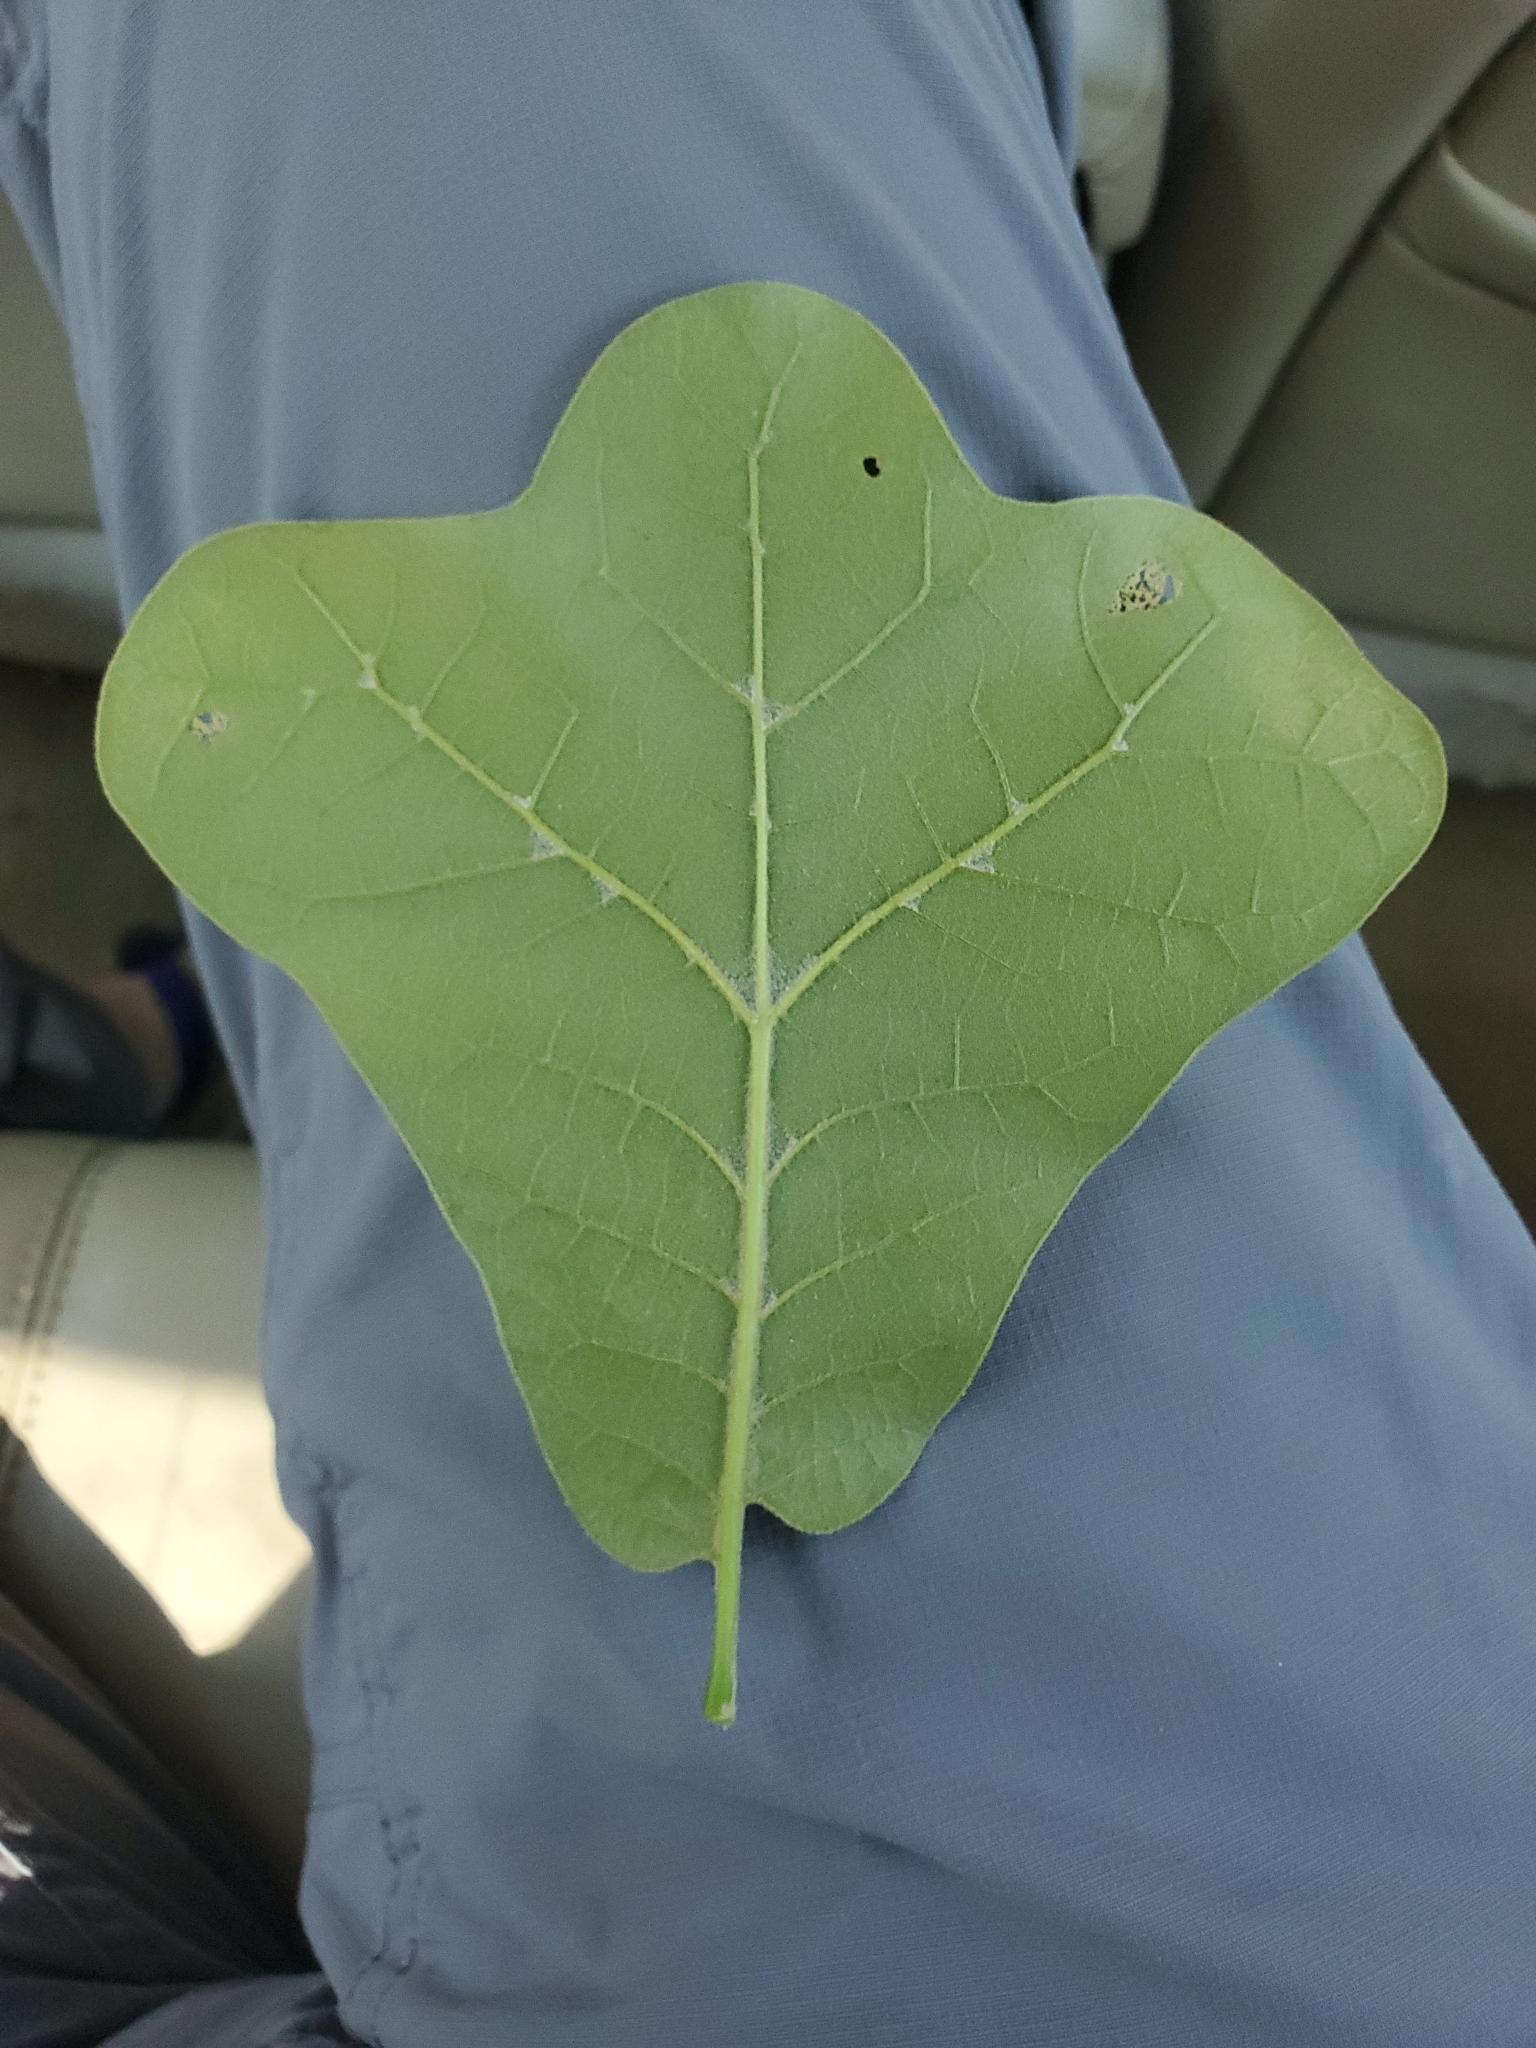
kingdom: Plantae
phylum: Tracheophyta
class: Magnoliopsida
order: Fagales
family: Fagaceae
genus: Quercus
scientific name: Quercus marilandica
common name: Blackjack oak
